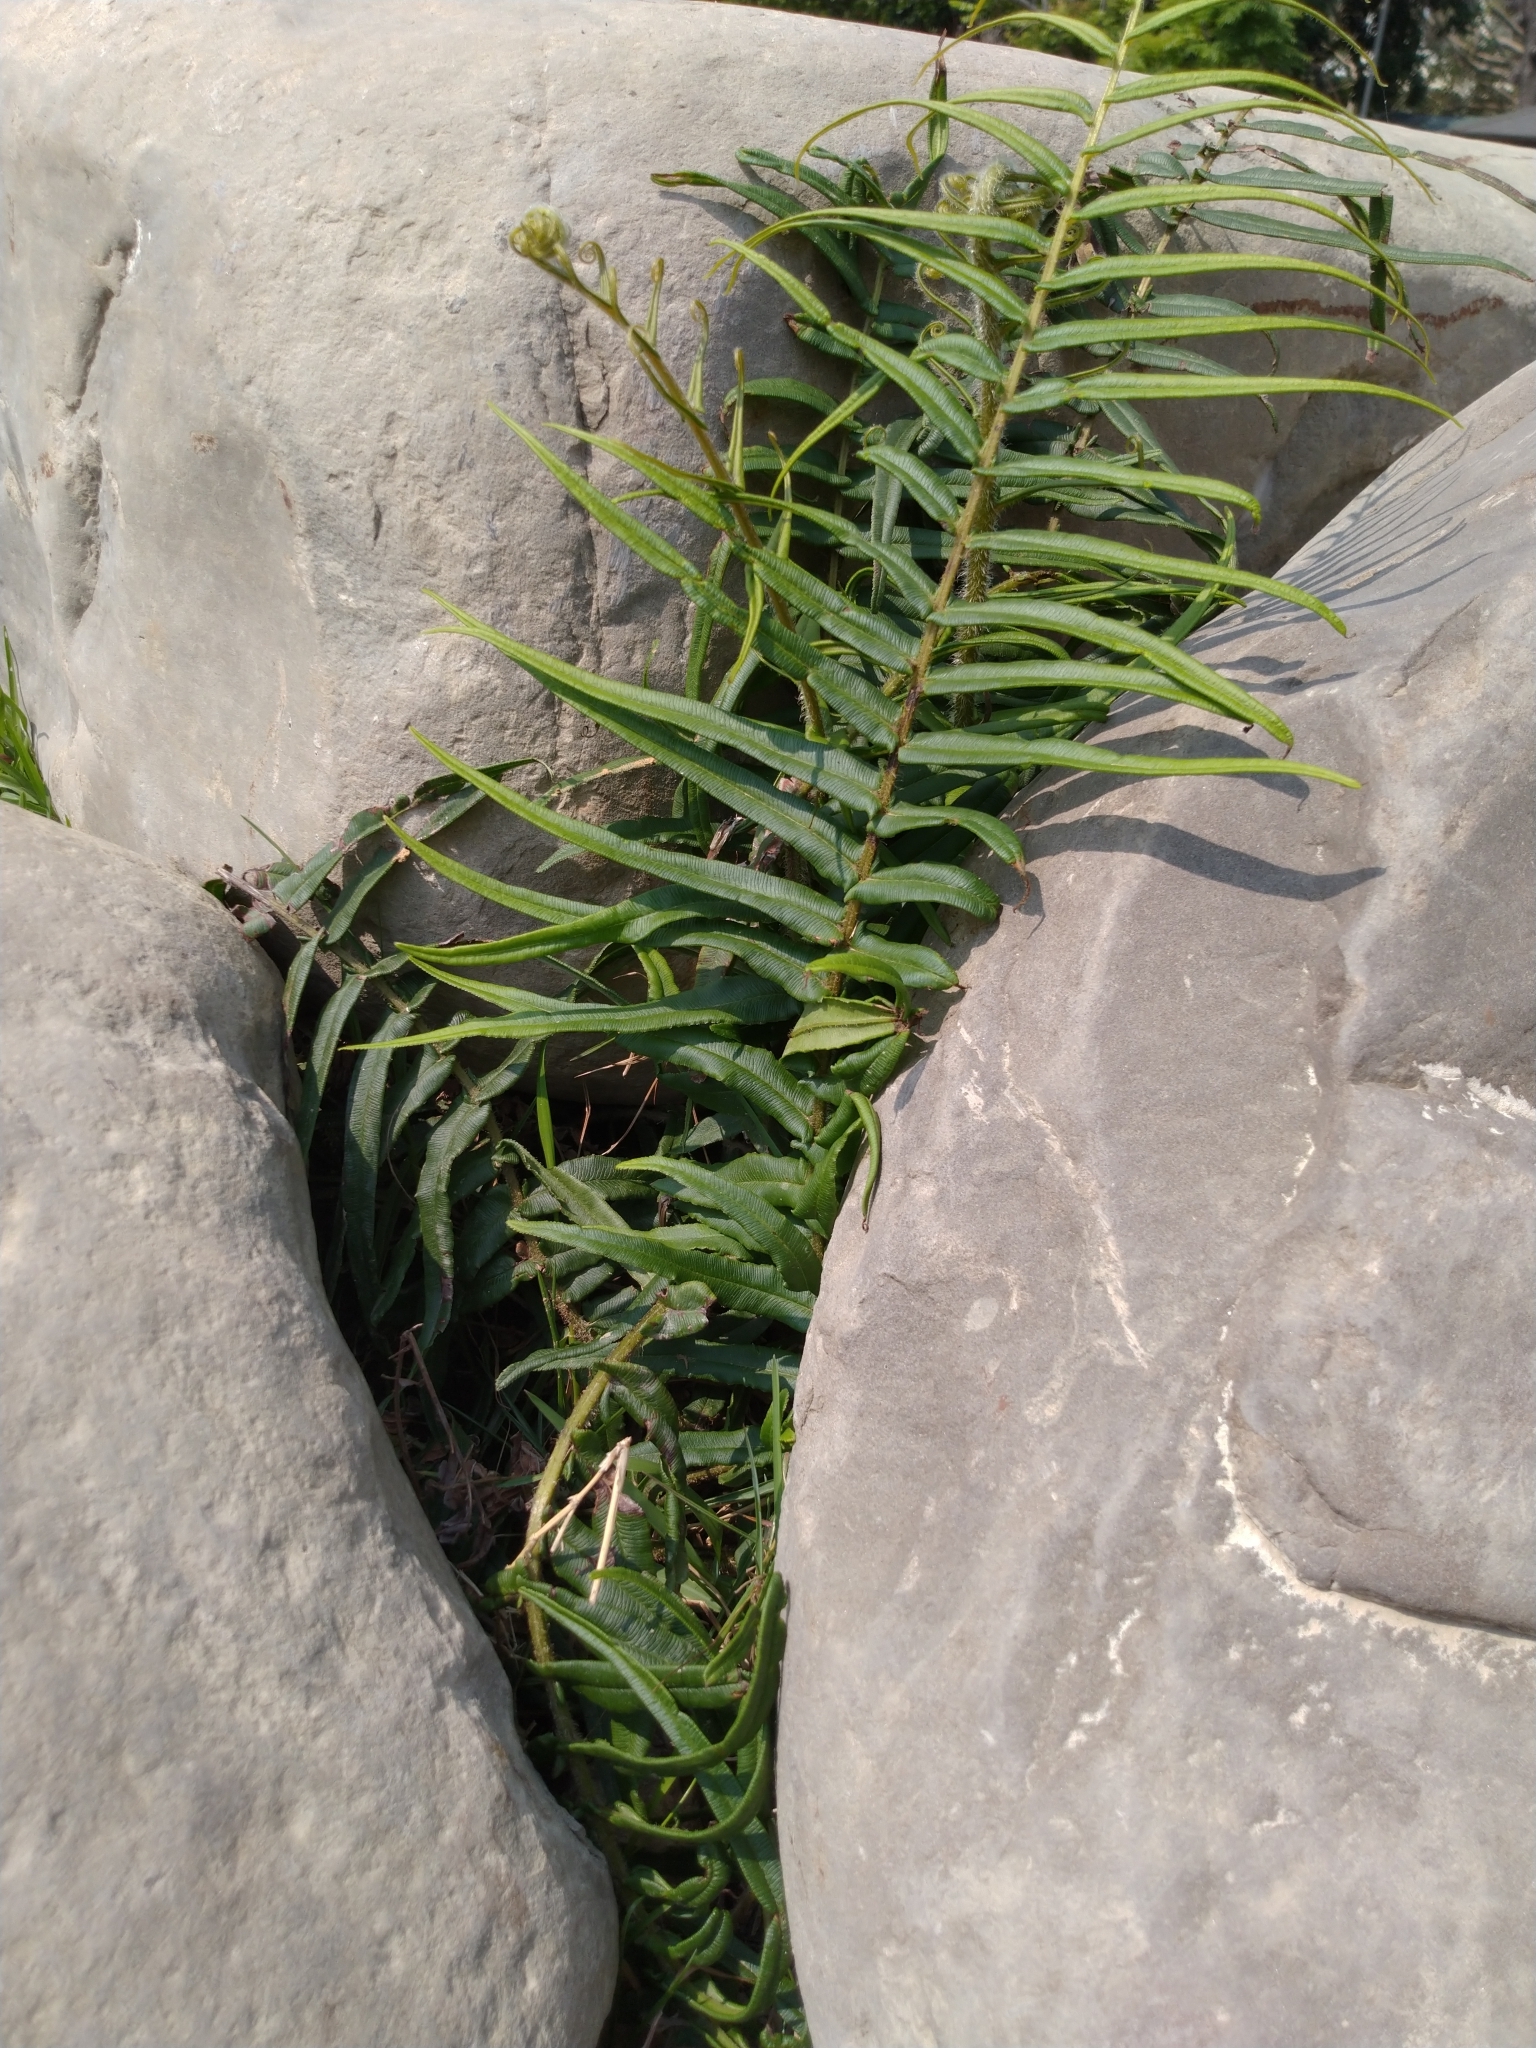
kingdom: Plantae
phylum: Tracheophyta
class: Polypodiopsida
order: Polypodiales
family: Pteridaceae
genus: Pteris
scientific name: Pteris vittata
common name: Ladder brake
